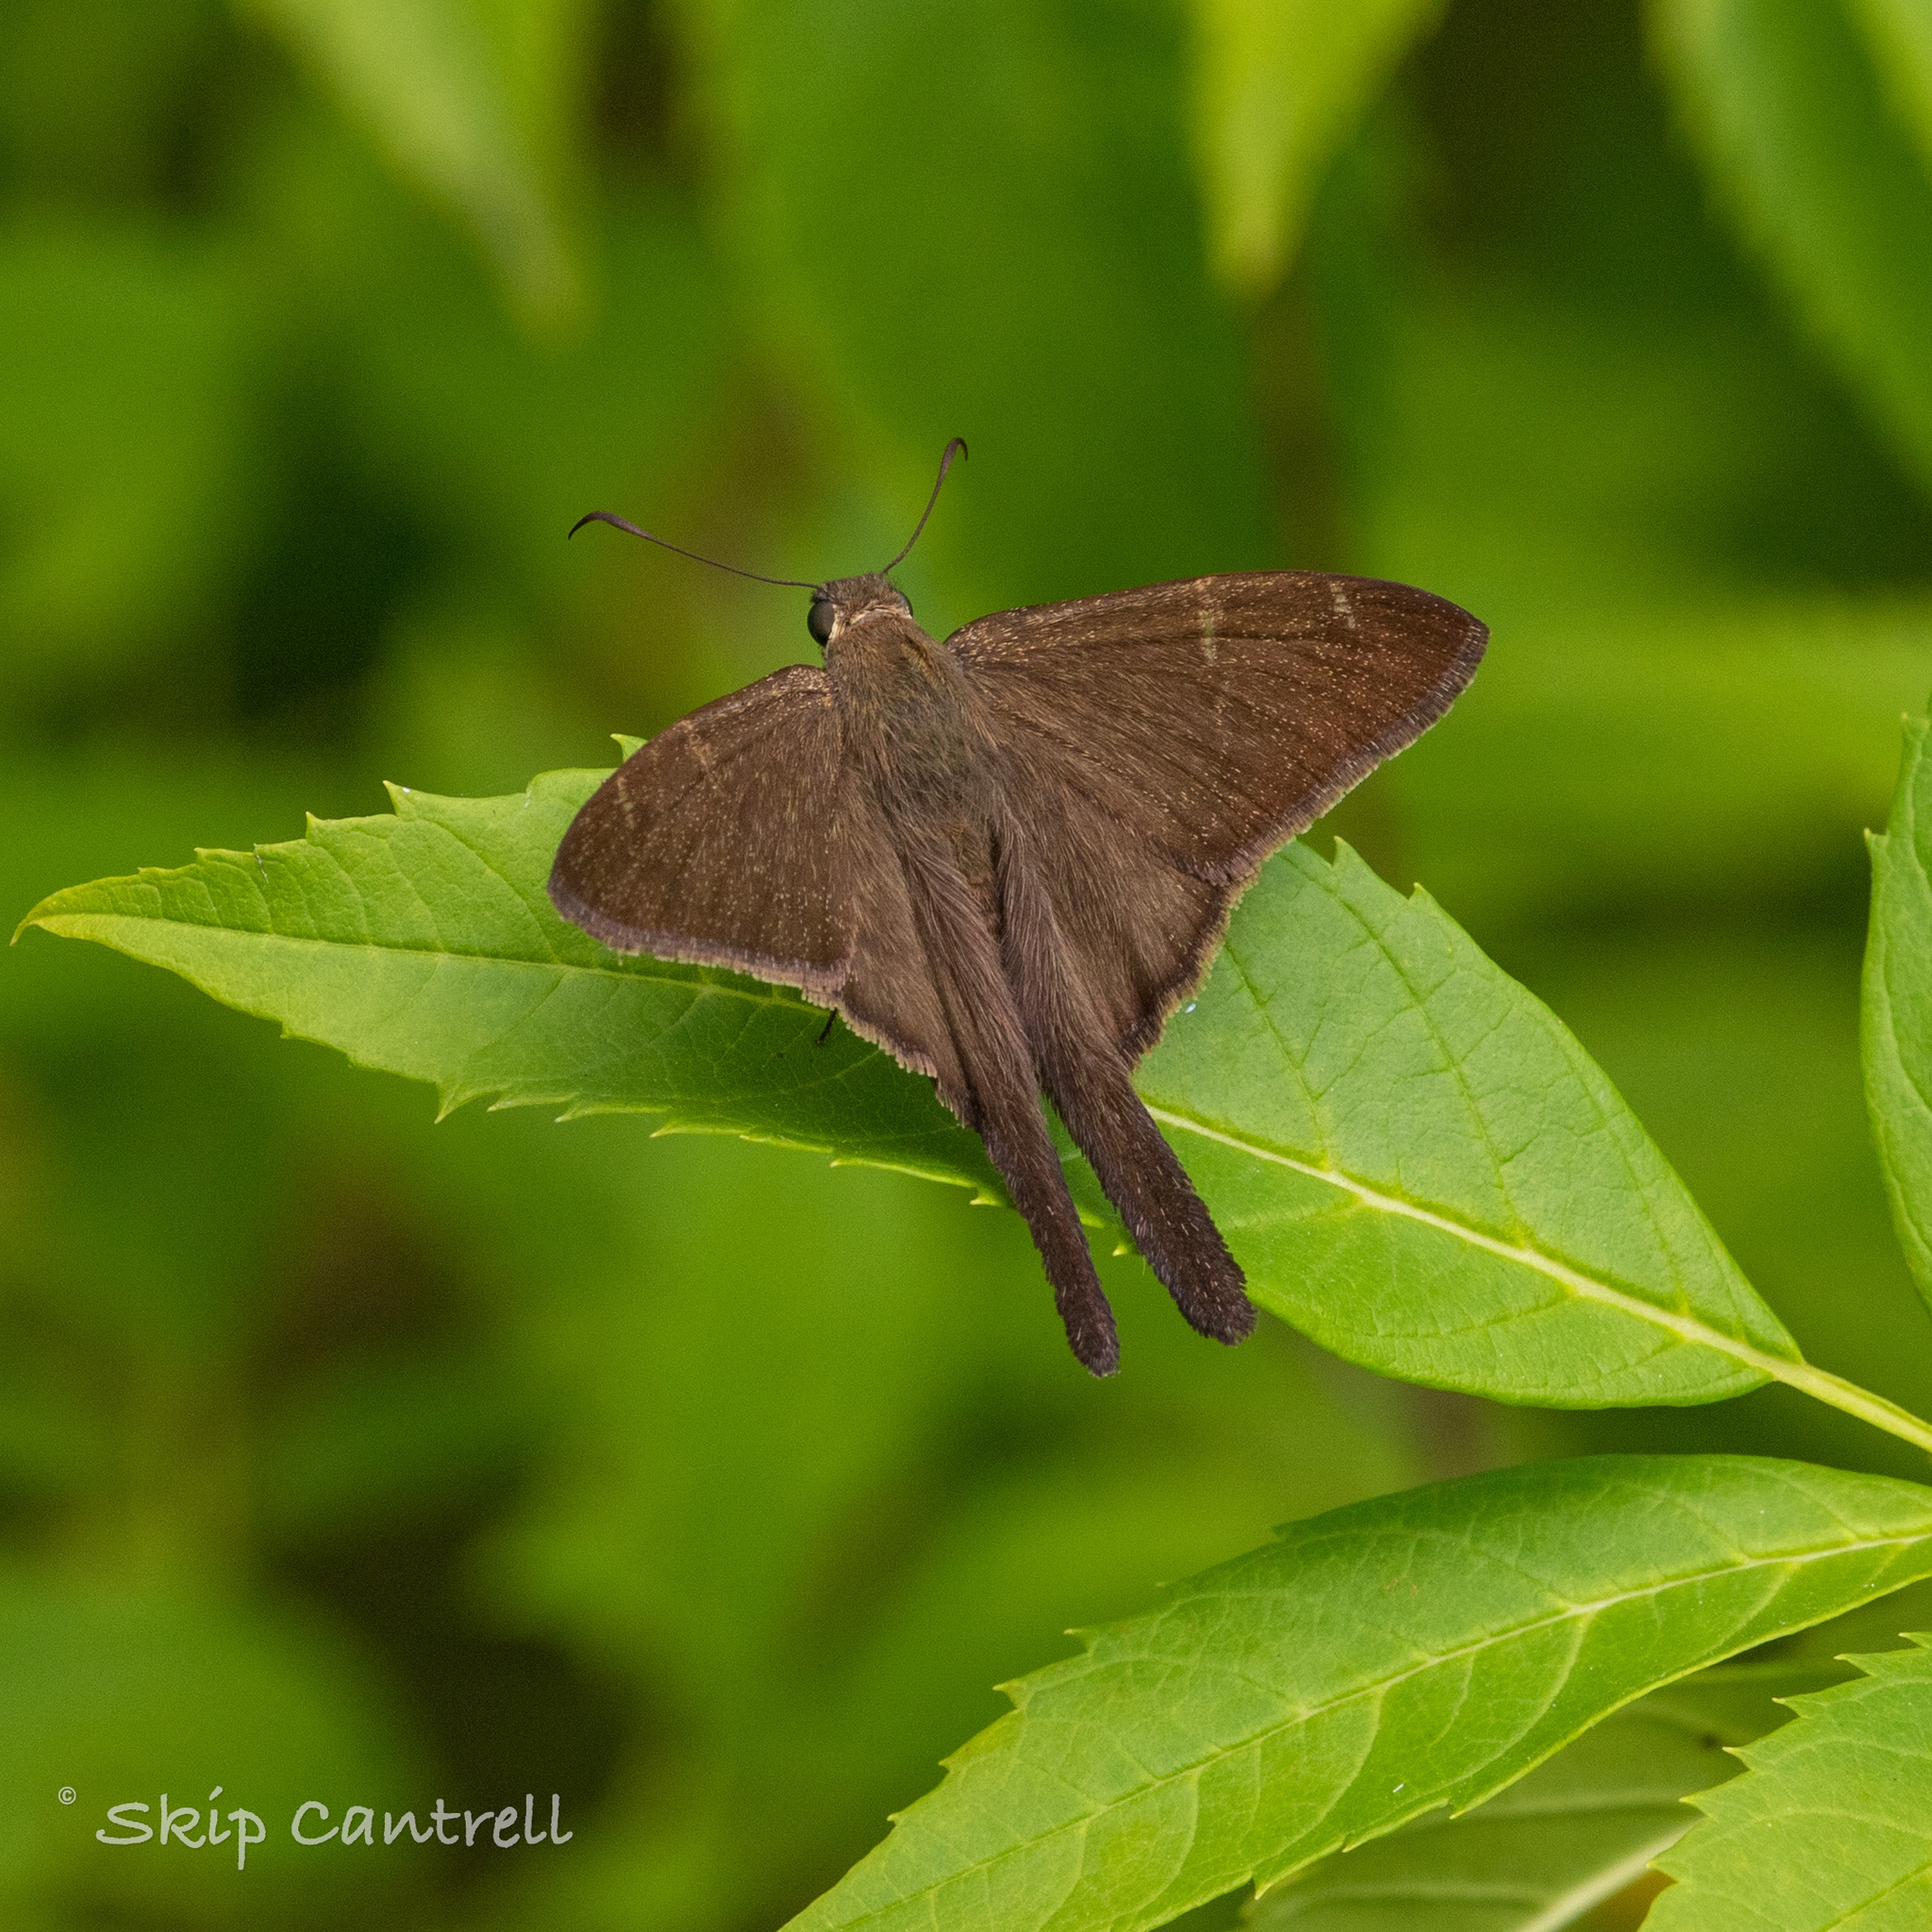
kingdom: Animalia
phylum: Arthropoda
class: Insecta
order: Lepidoptera
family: Hesperiidae
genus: Urbanus
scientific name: Urbanus procne
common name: Brown longtail
